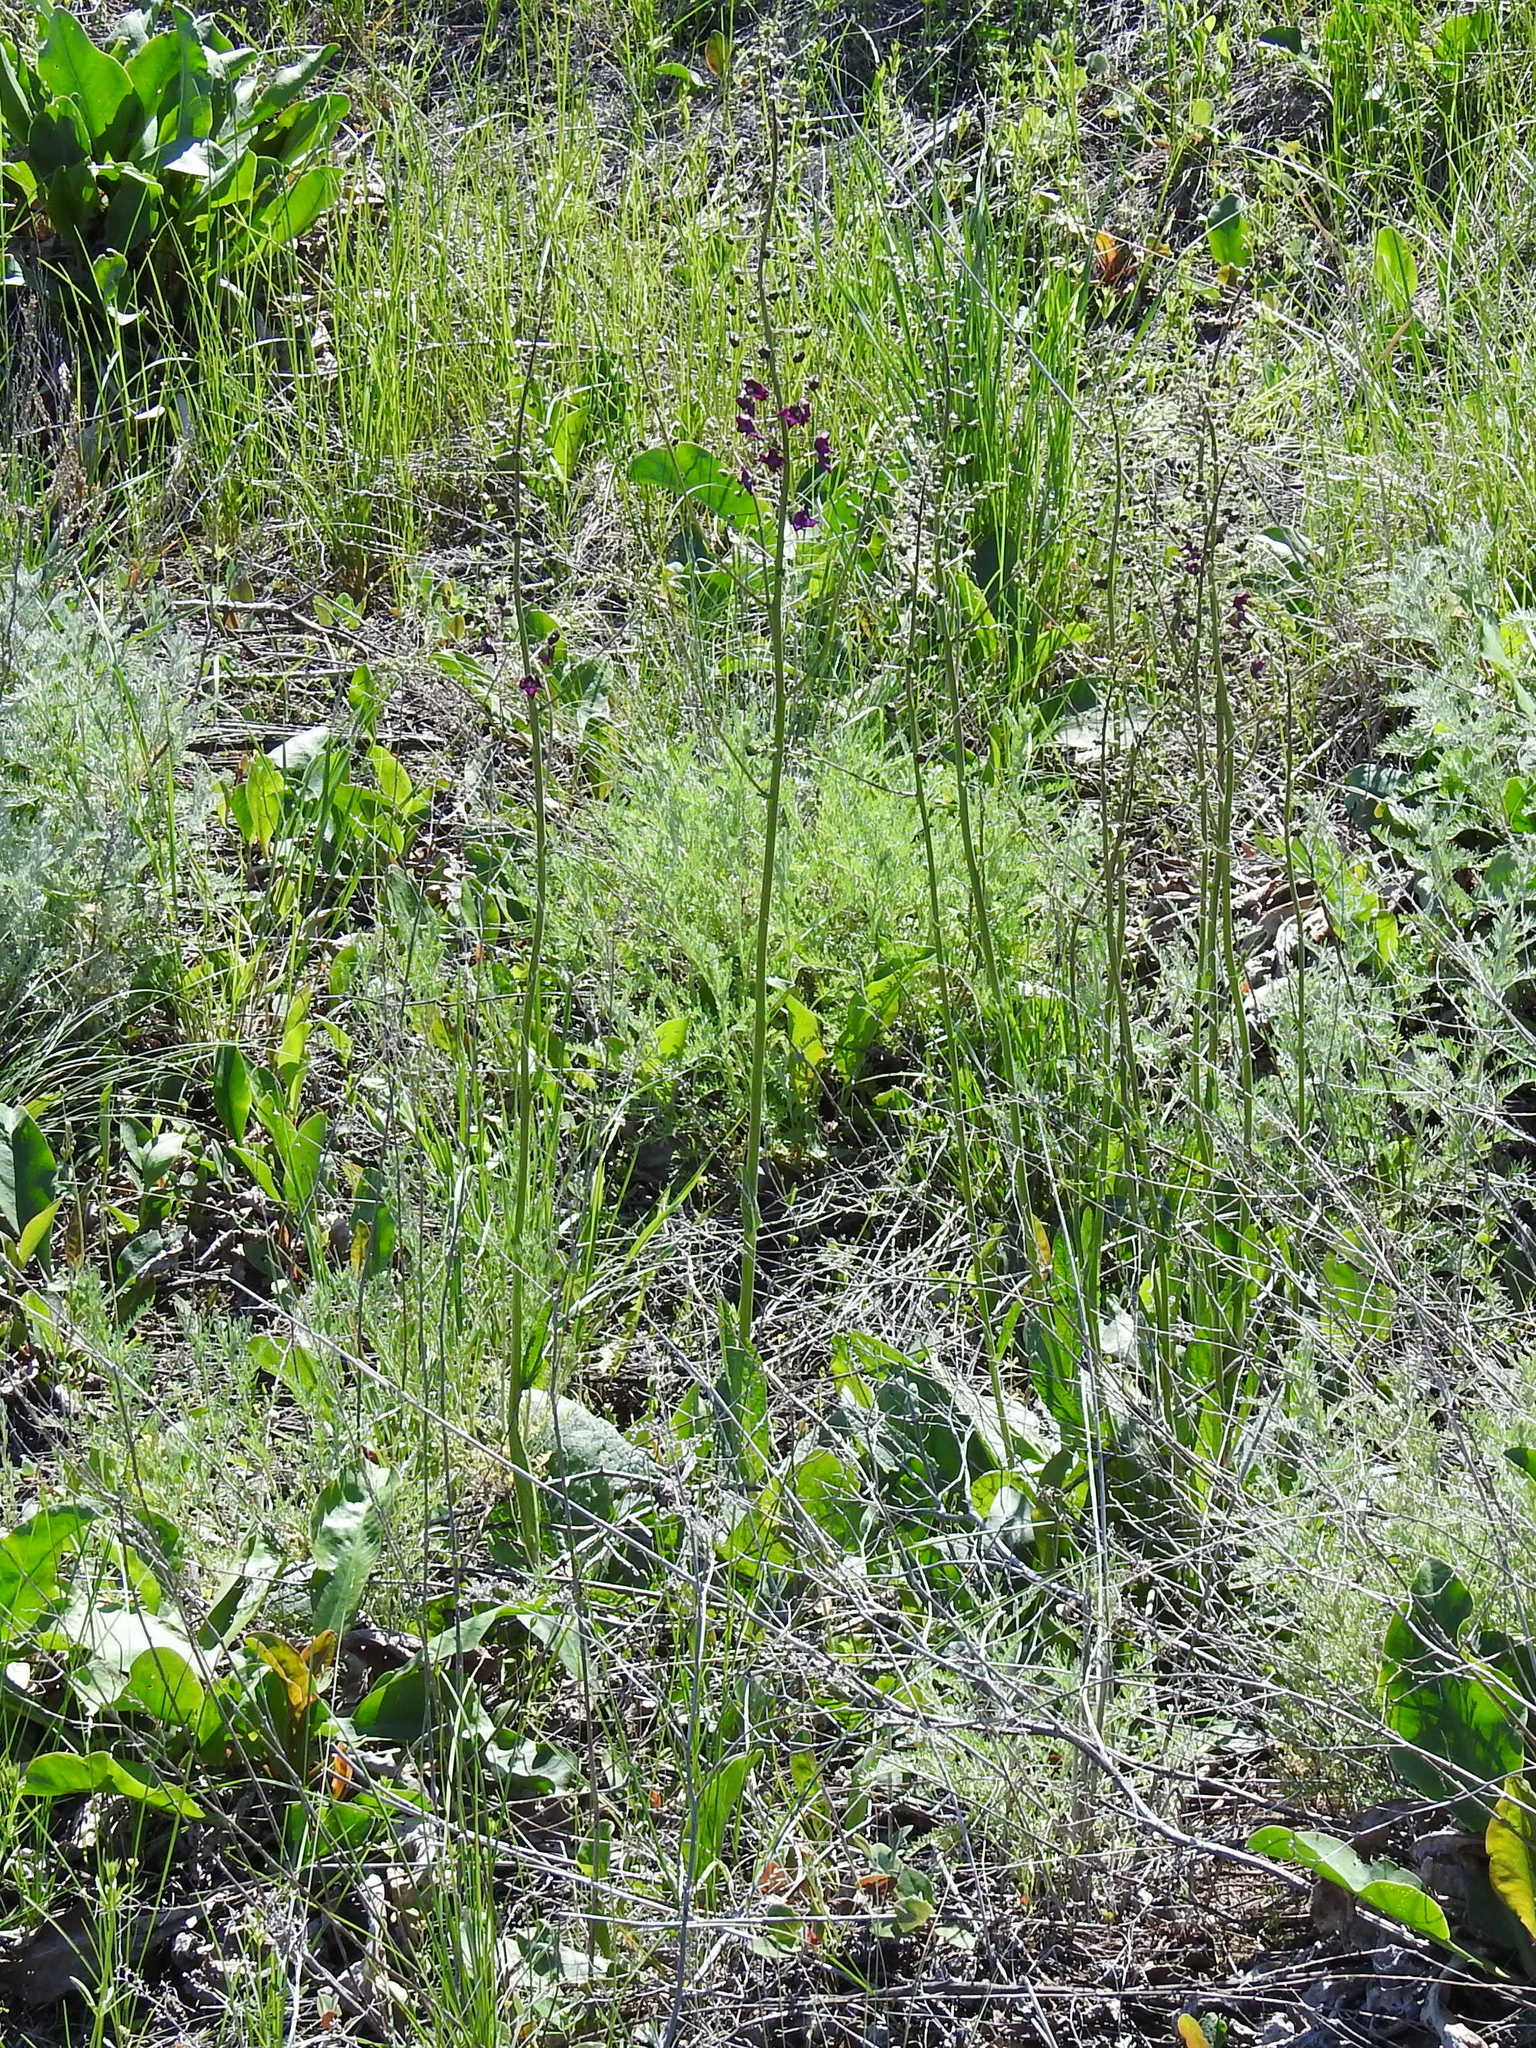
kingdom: Plantae
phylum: Tracheophyta
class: Magnoliopsida
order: Lamiales
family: Scrophulariaceae
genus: Verbascum
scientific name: Verbascum phoeniceum
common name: Purple mullein
